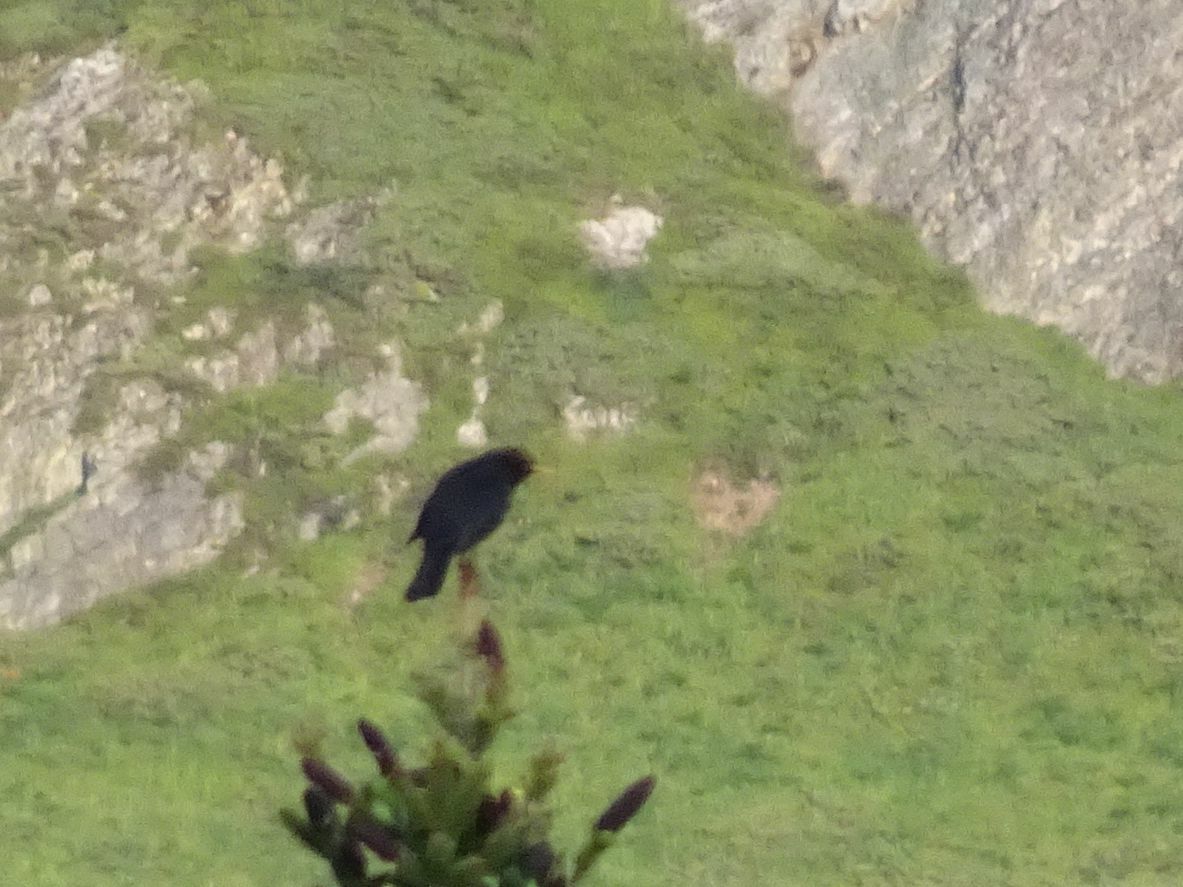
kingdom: Animalia
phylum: Chordata
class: Aves
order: Passeriformes
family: Turdidae
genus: Turdus
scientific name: Turdus merula
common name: Common blackbird
